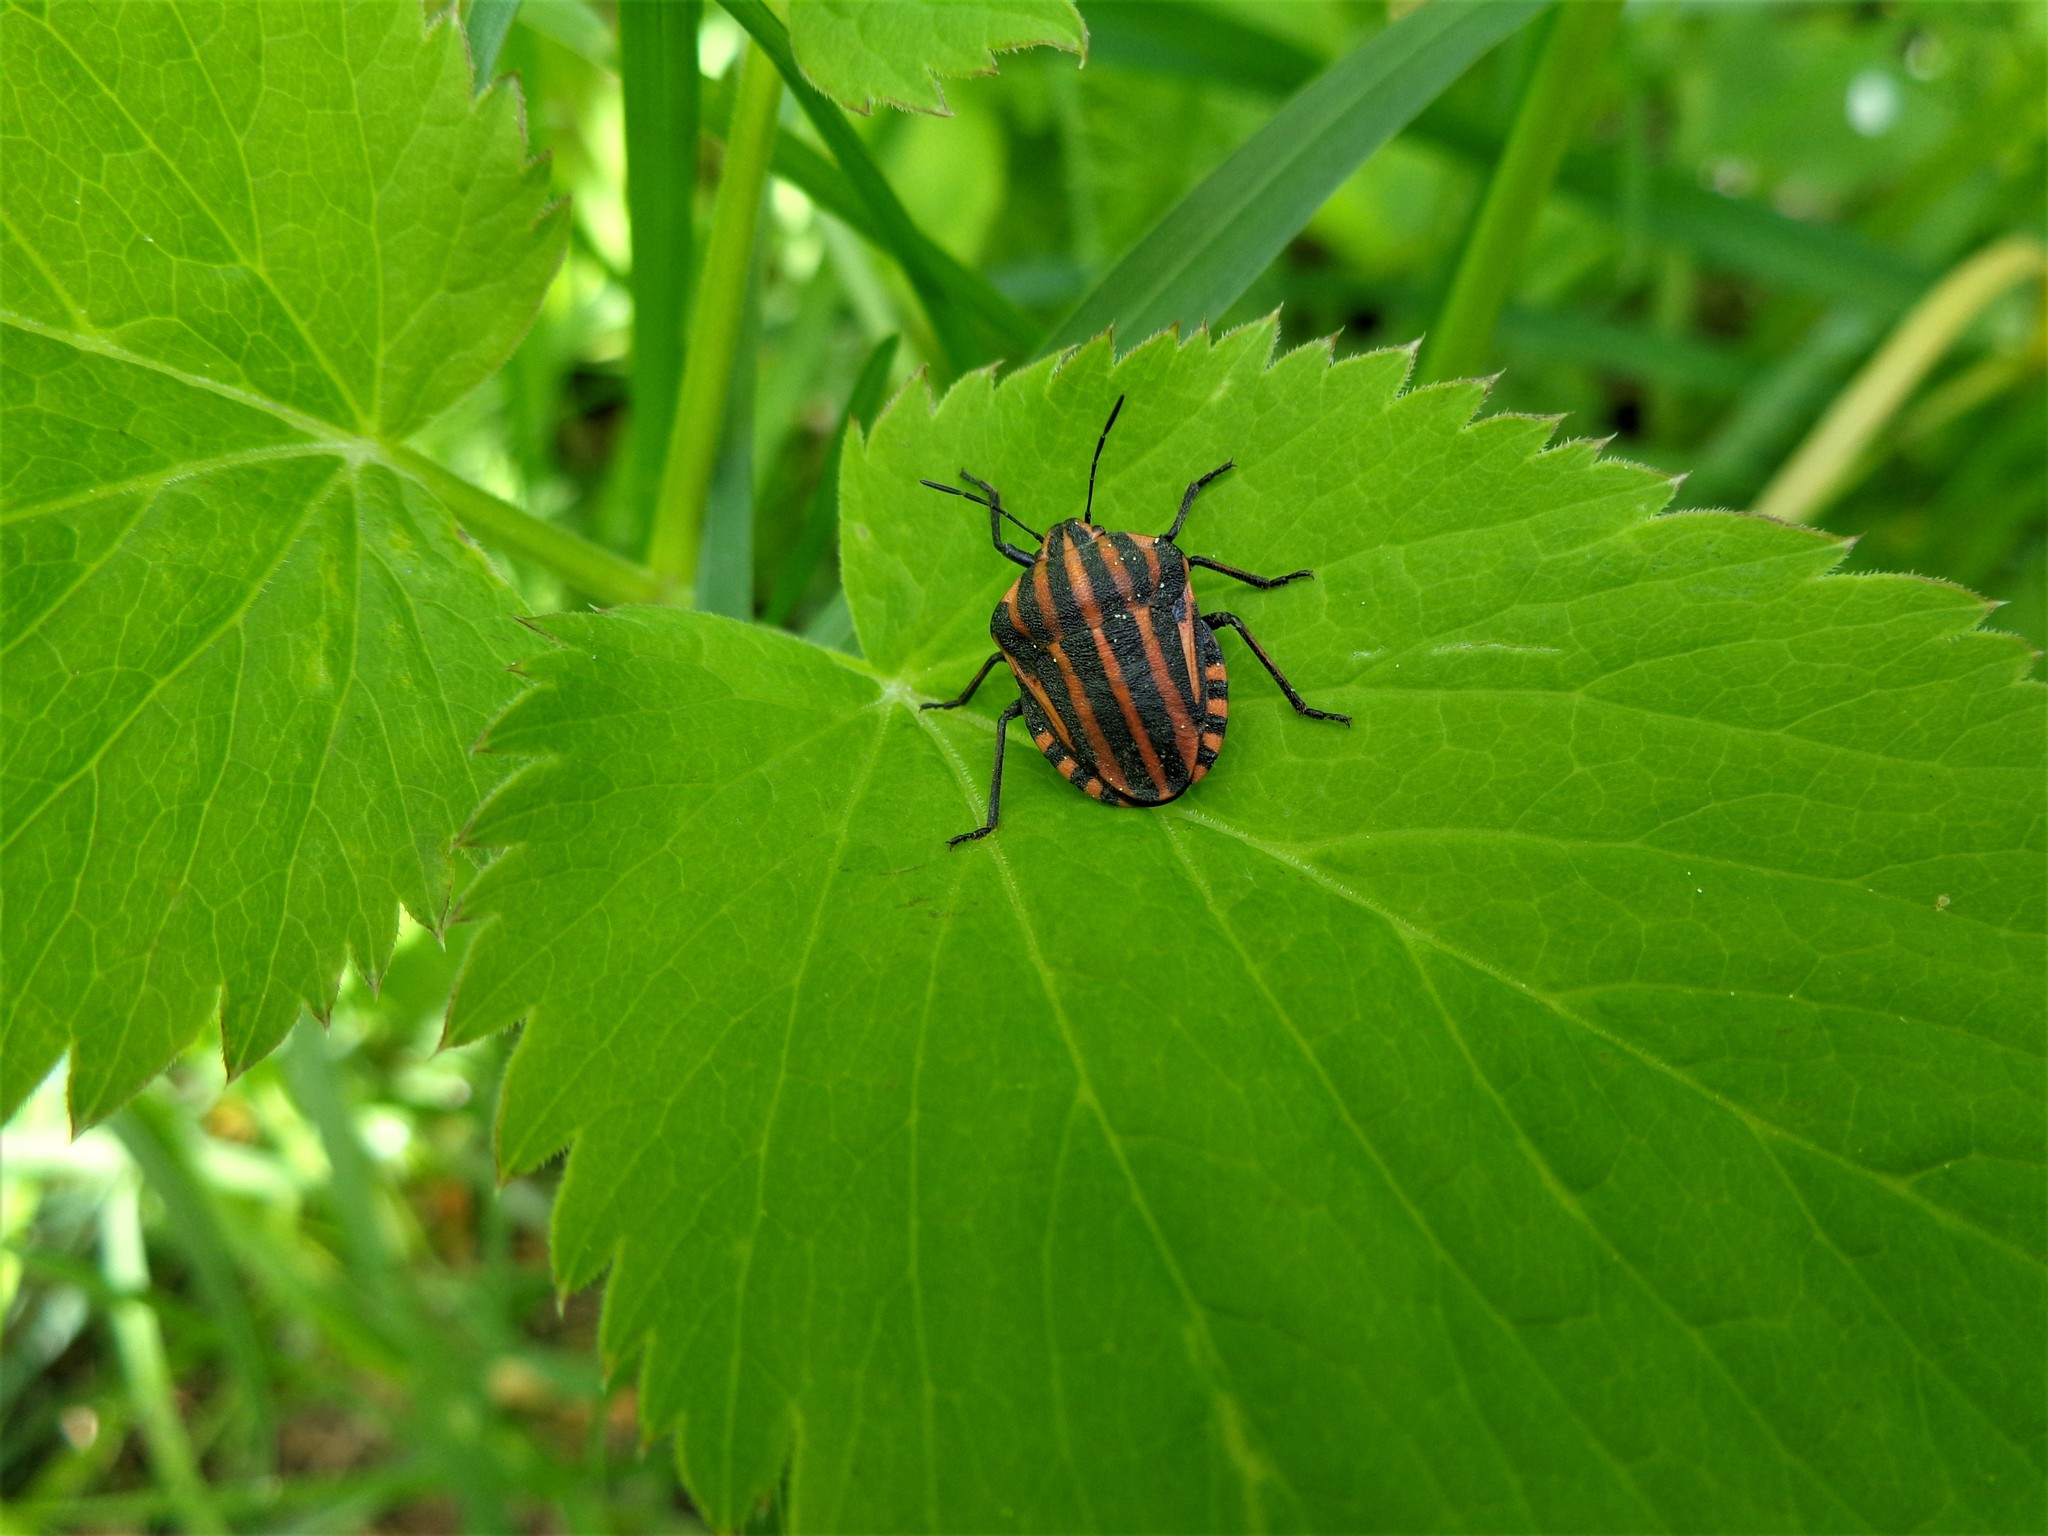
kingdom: Animalia
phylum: Arthropoda
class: Insecta
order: Hemiptera
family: Pentatomidae
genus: Graphosoma
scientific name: Graphosoma italicum
